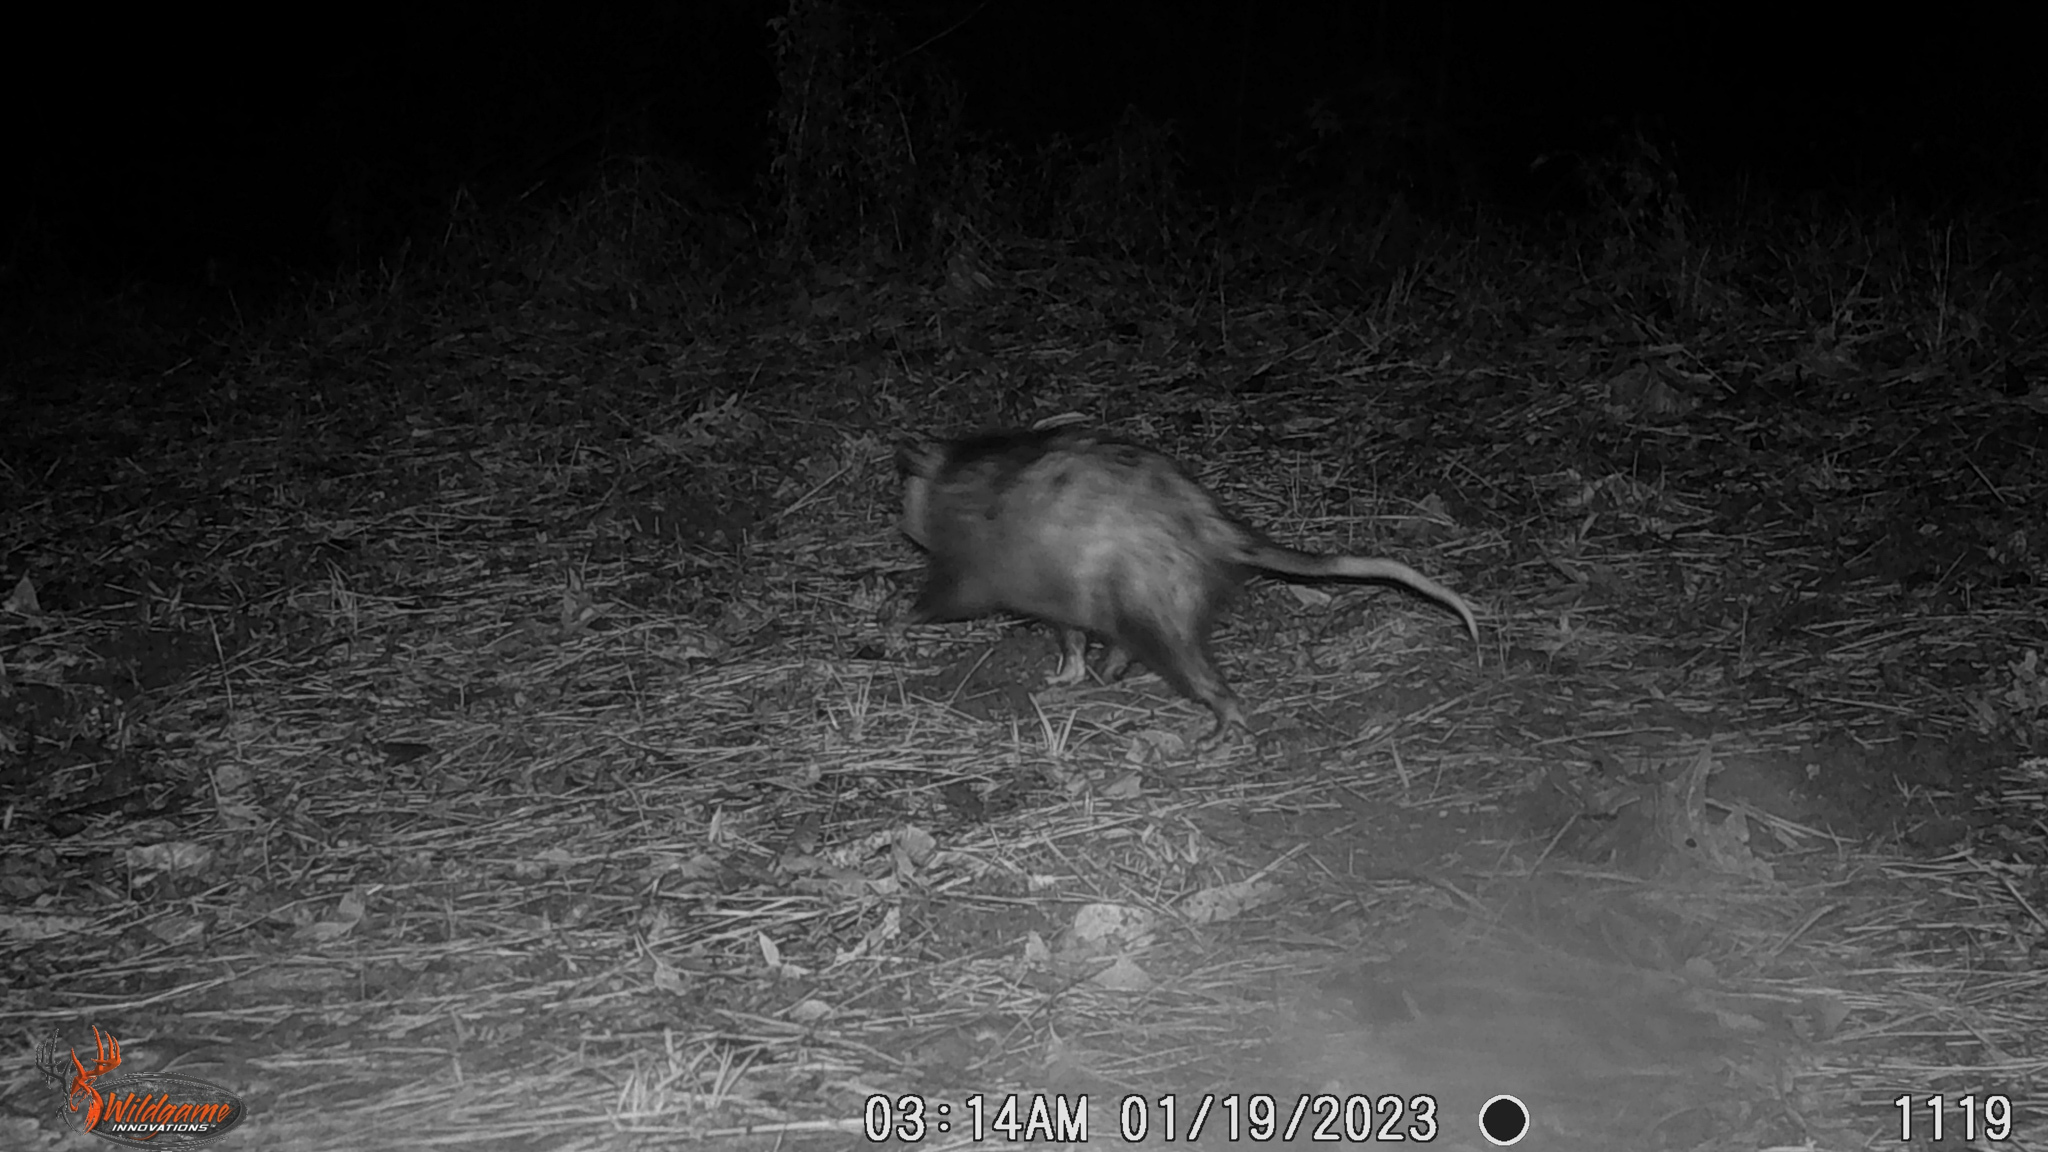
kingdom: Animalia
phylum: Chordata
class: Mammalia
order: Didelphimorphia
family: Didelphidae
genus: Didelphis
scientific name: Didelphis virginiana
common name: Virginia opossum
